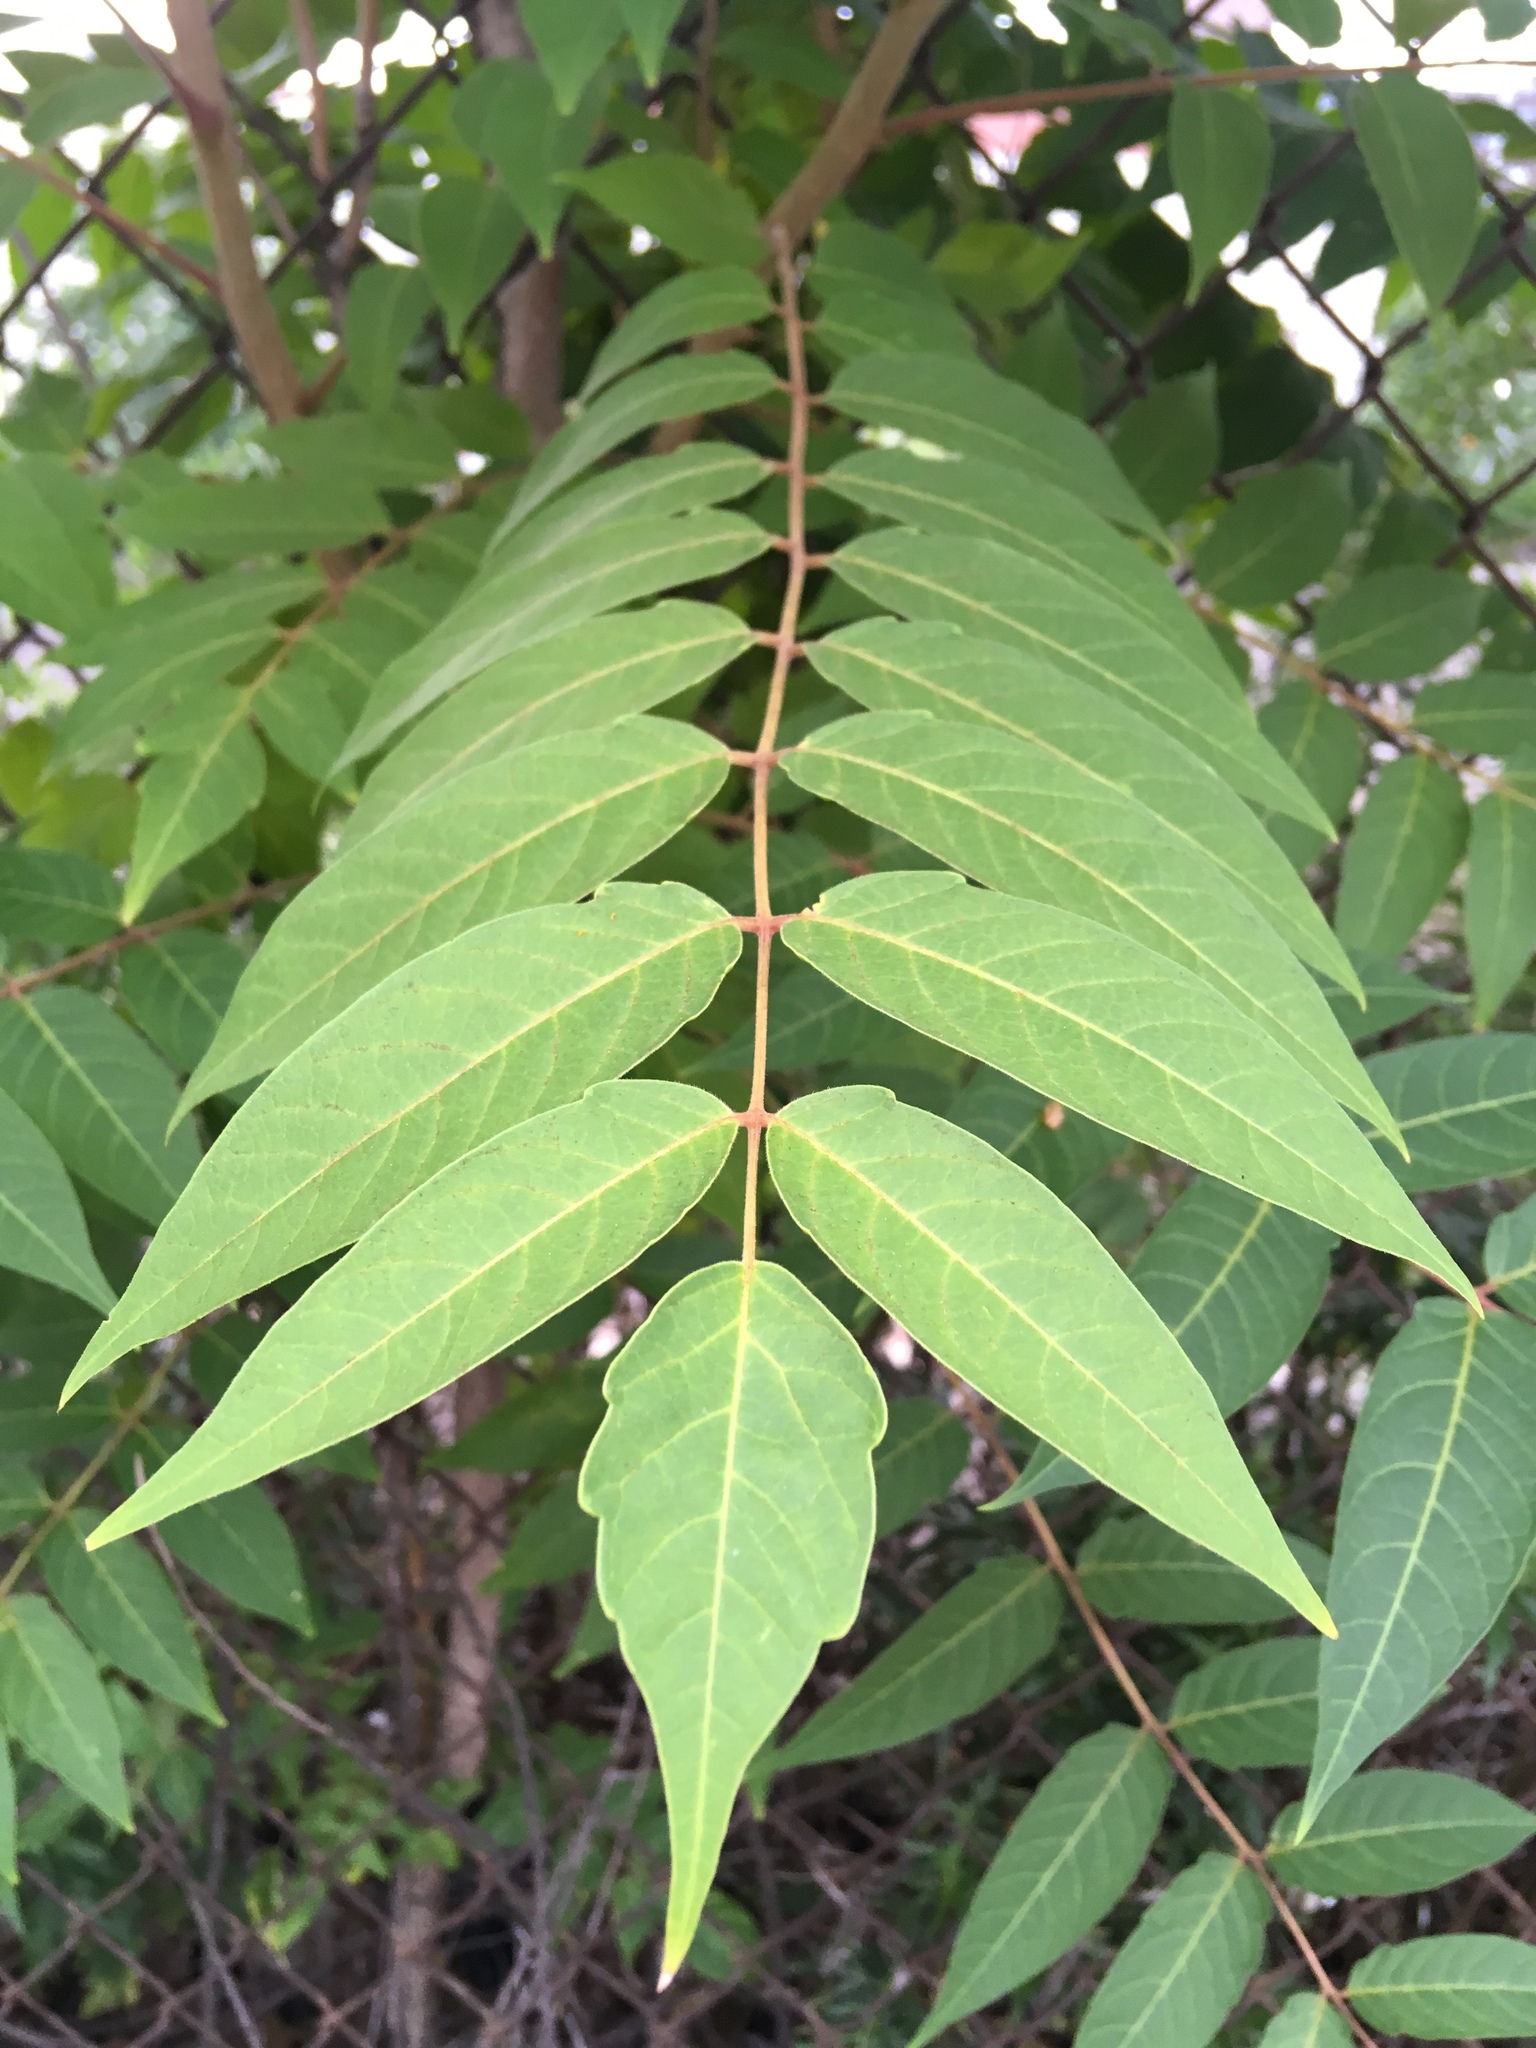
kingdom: Plantae
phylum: Tracheophyta
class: Magnoliopsida
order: Sapindales
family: Simaroubaceae
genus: Ailanthus
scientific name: Ailanthus altissima
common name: Tree-of-heaven
